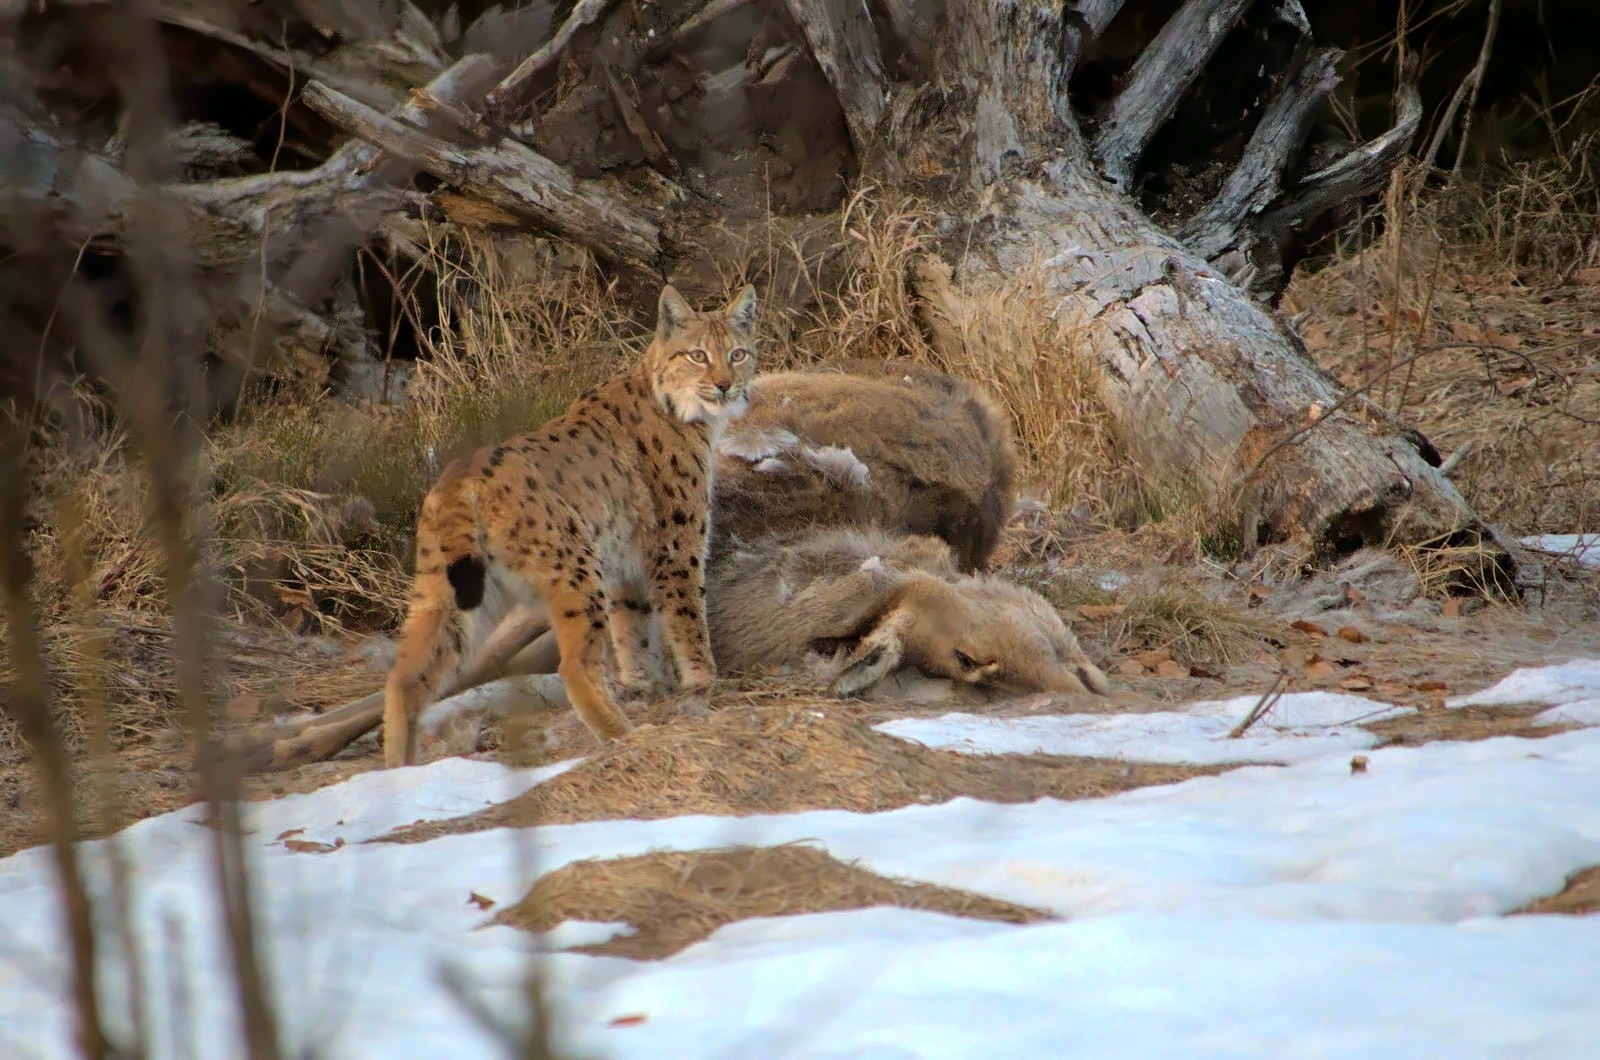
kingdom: Animalia
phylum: Chordata
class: Mammalia
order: Carnivora
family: Felidae
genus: Lynx
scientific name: Lynx lynx
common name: Eurasian lynx
